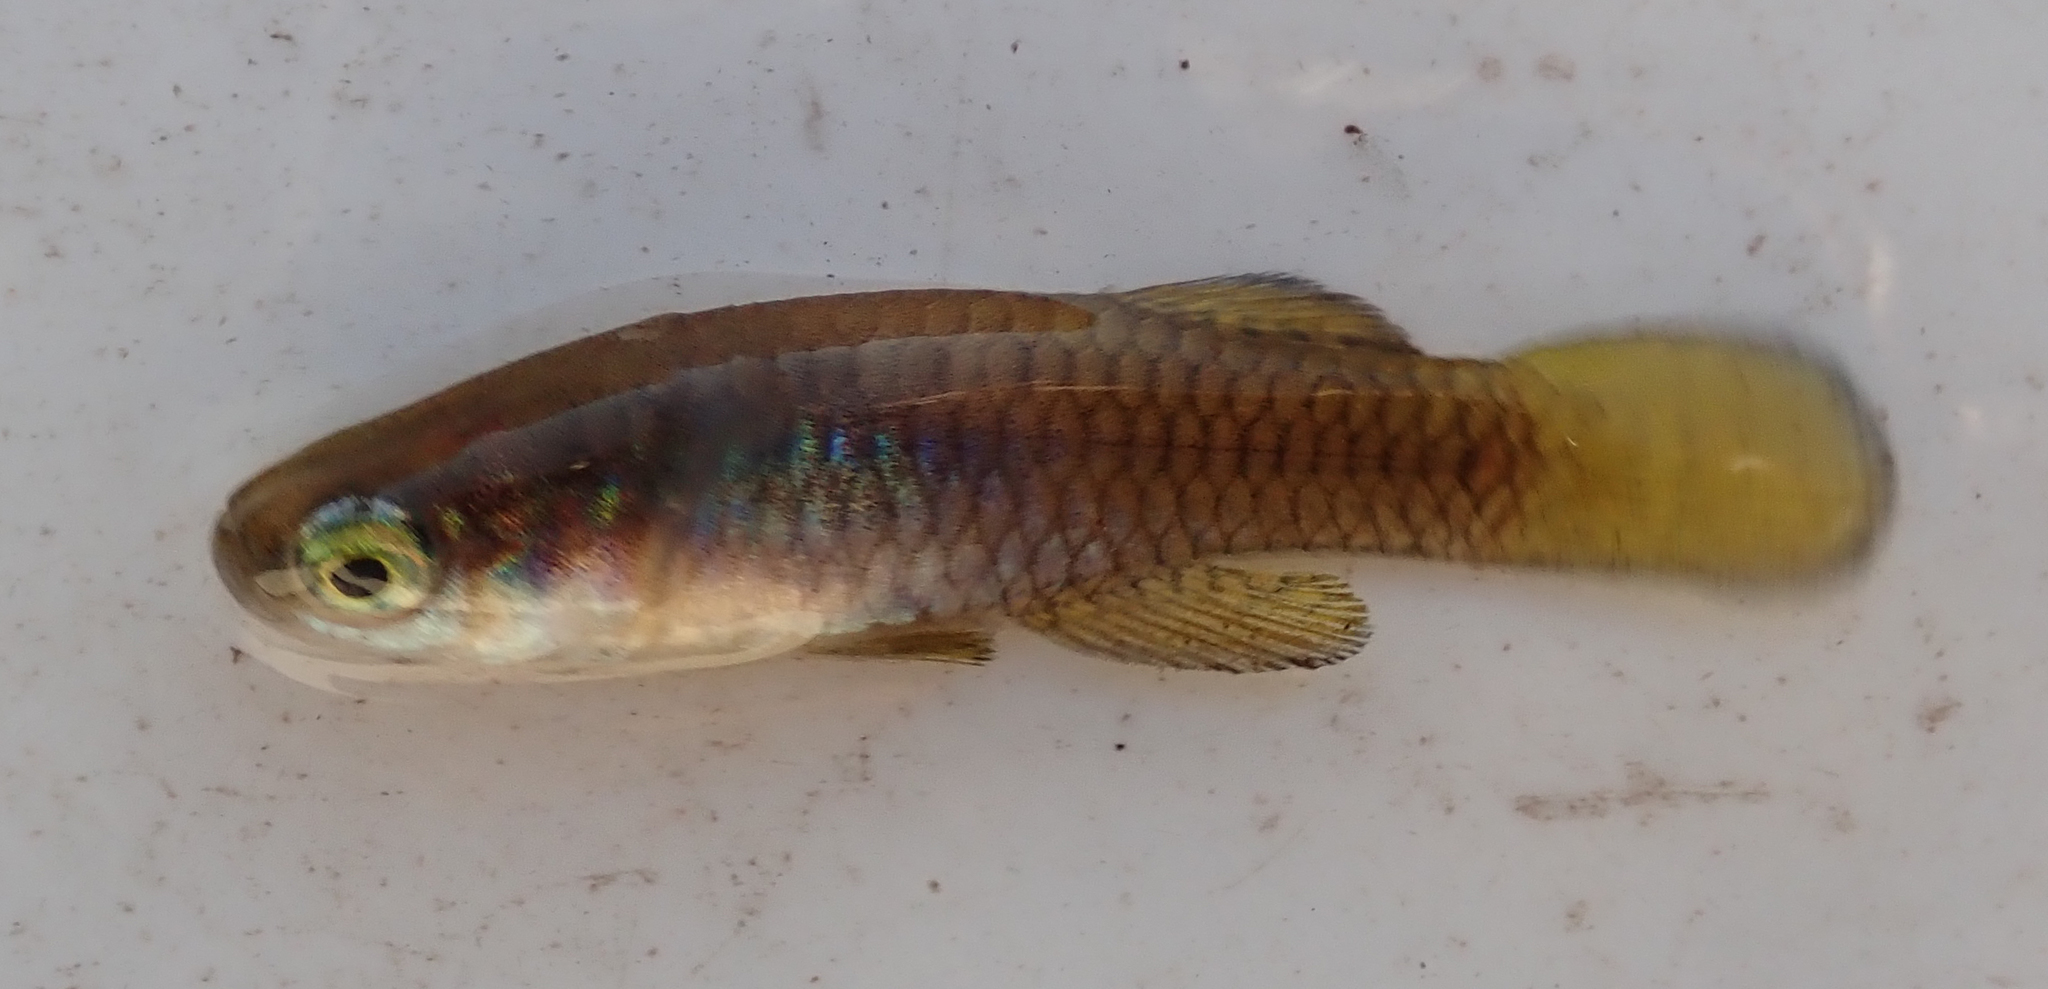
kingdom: Animalia
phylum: Chordata
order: Cyprinodontiformes
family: Poeciliidae
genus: Micropanchax
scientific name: Micropanchax hutereaui
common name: Meshscaled topminnow
